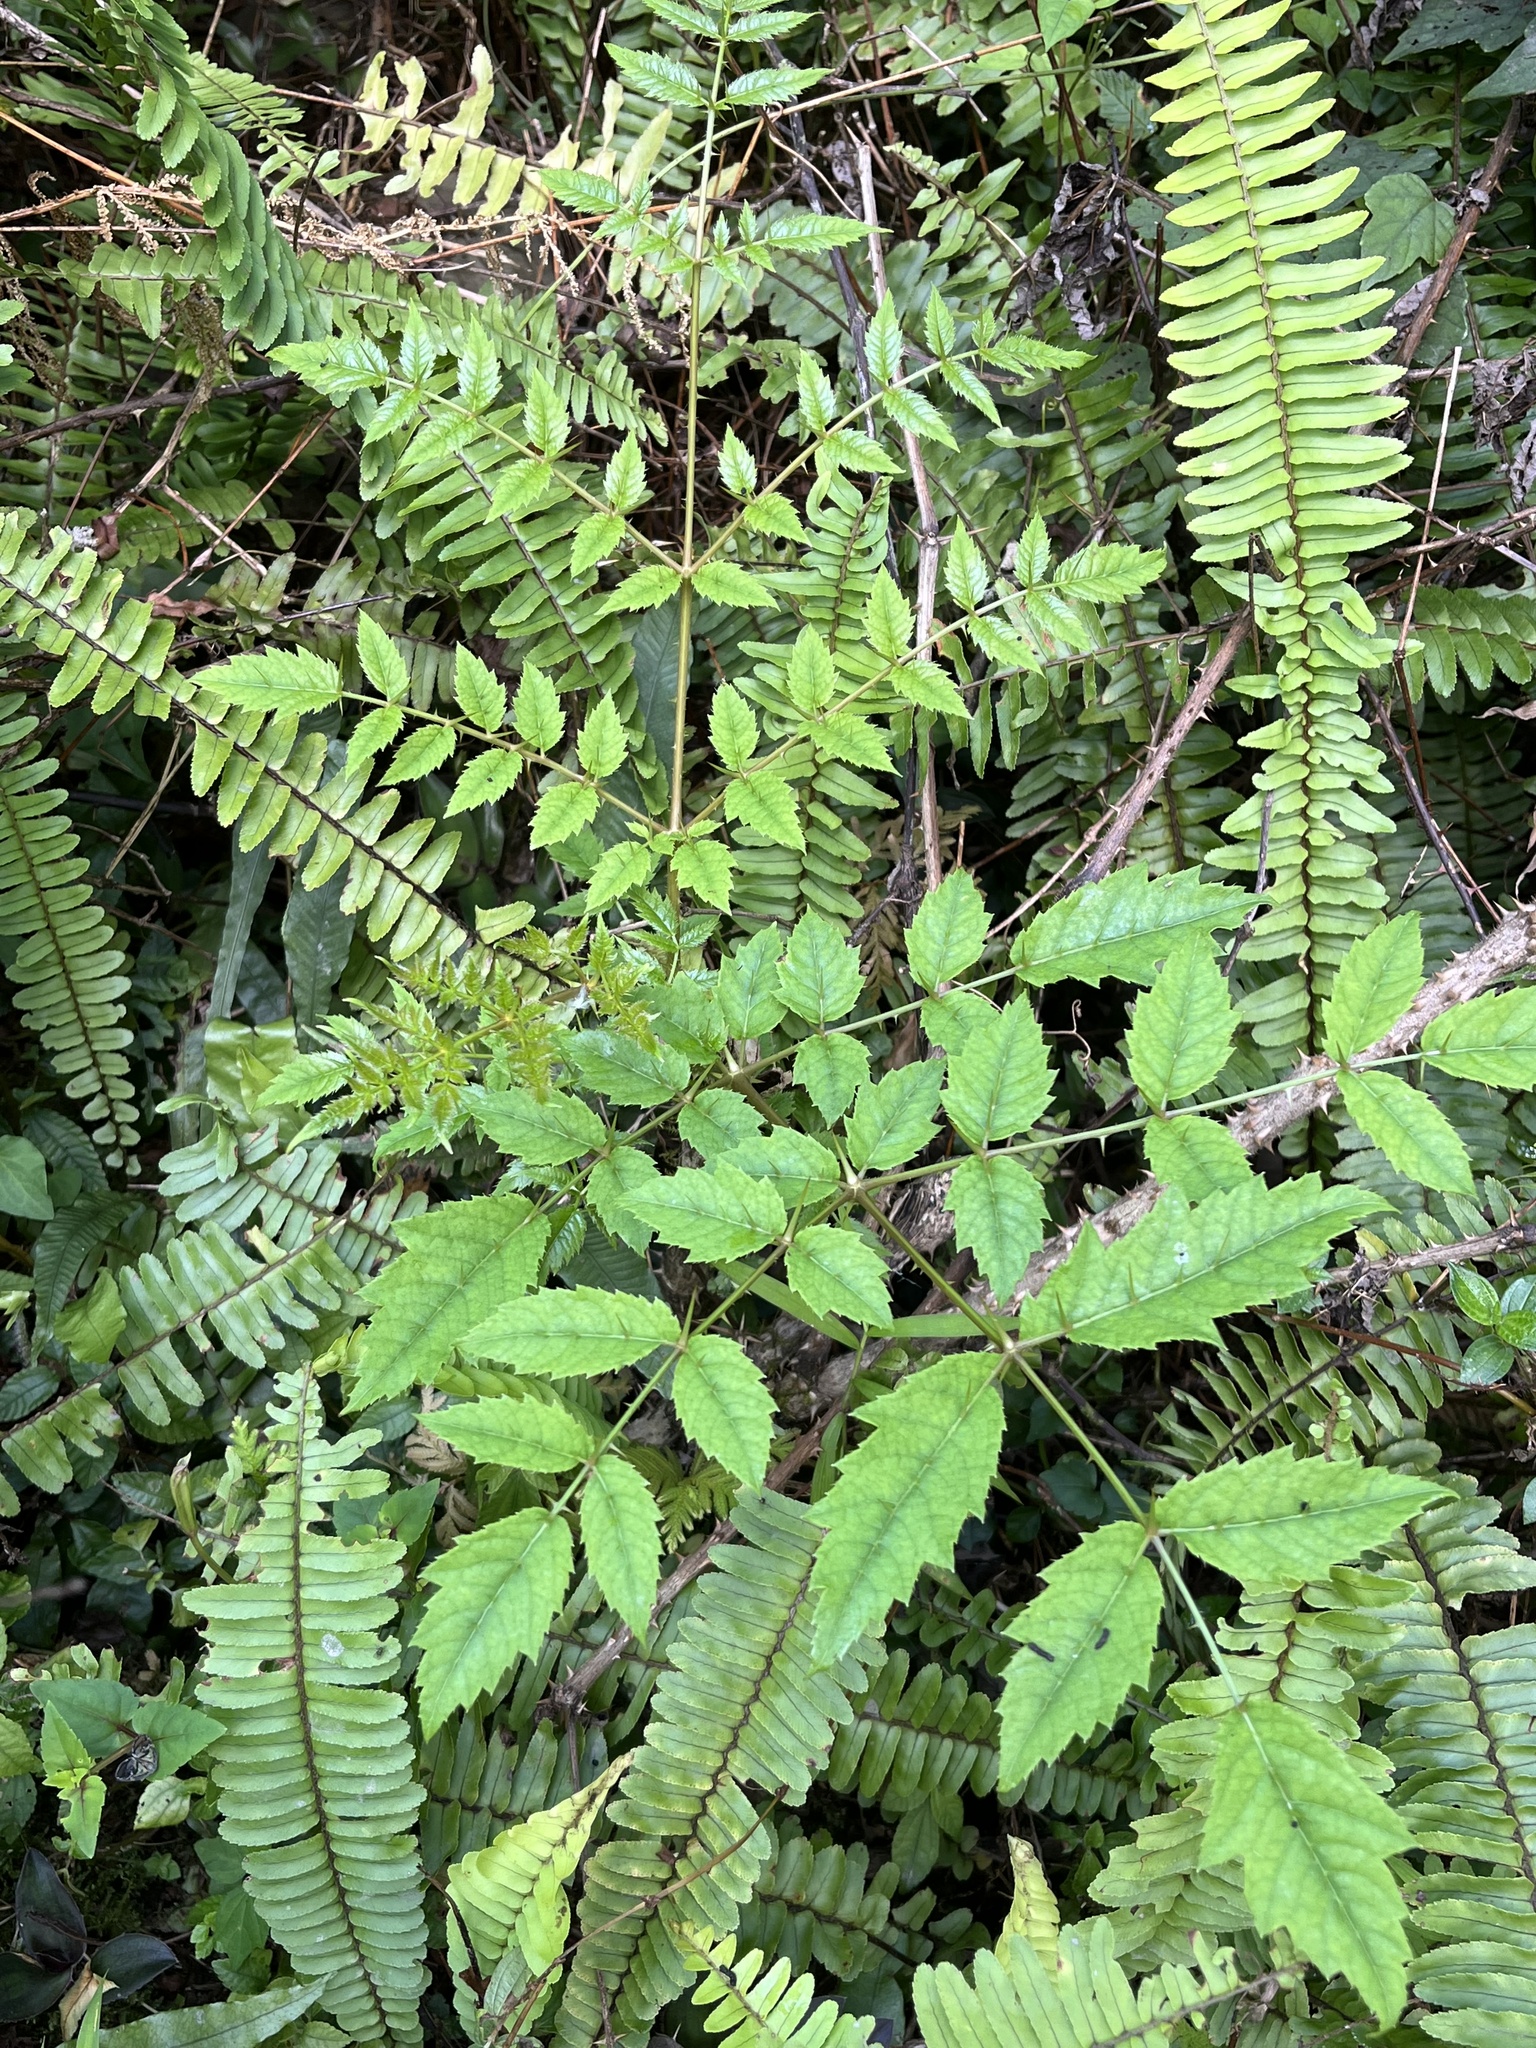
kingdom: Plantae
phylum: Tracheophyta
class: Magnoliopsida
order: Apiales
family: Araliaceae
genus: Aralia
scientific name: Aralia decaisneana
